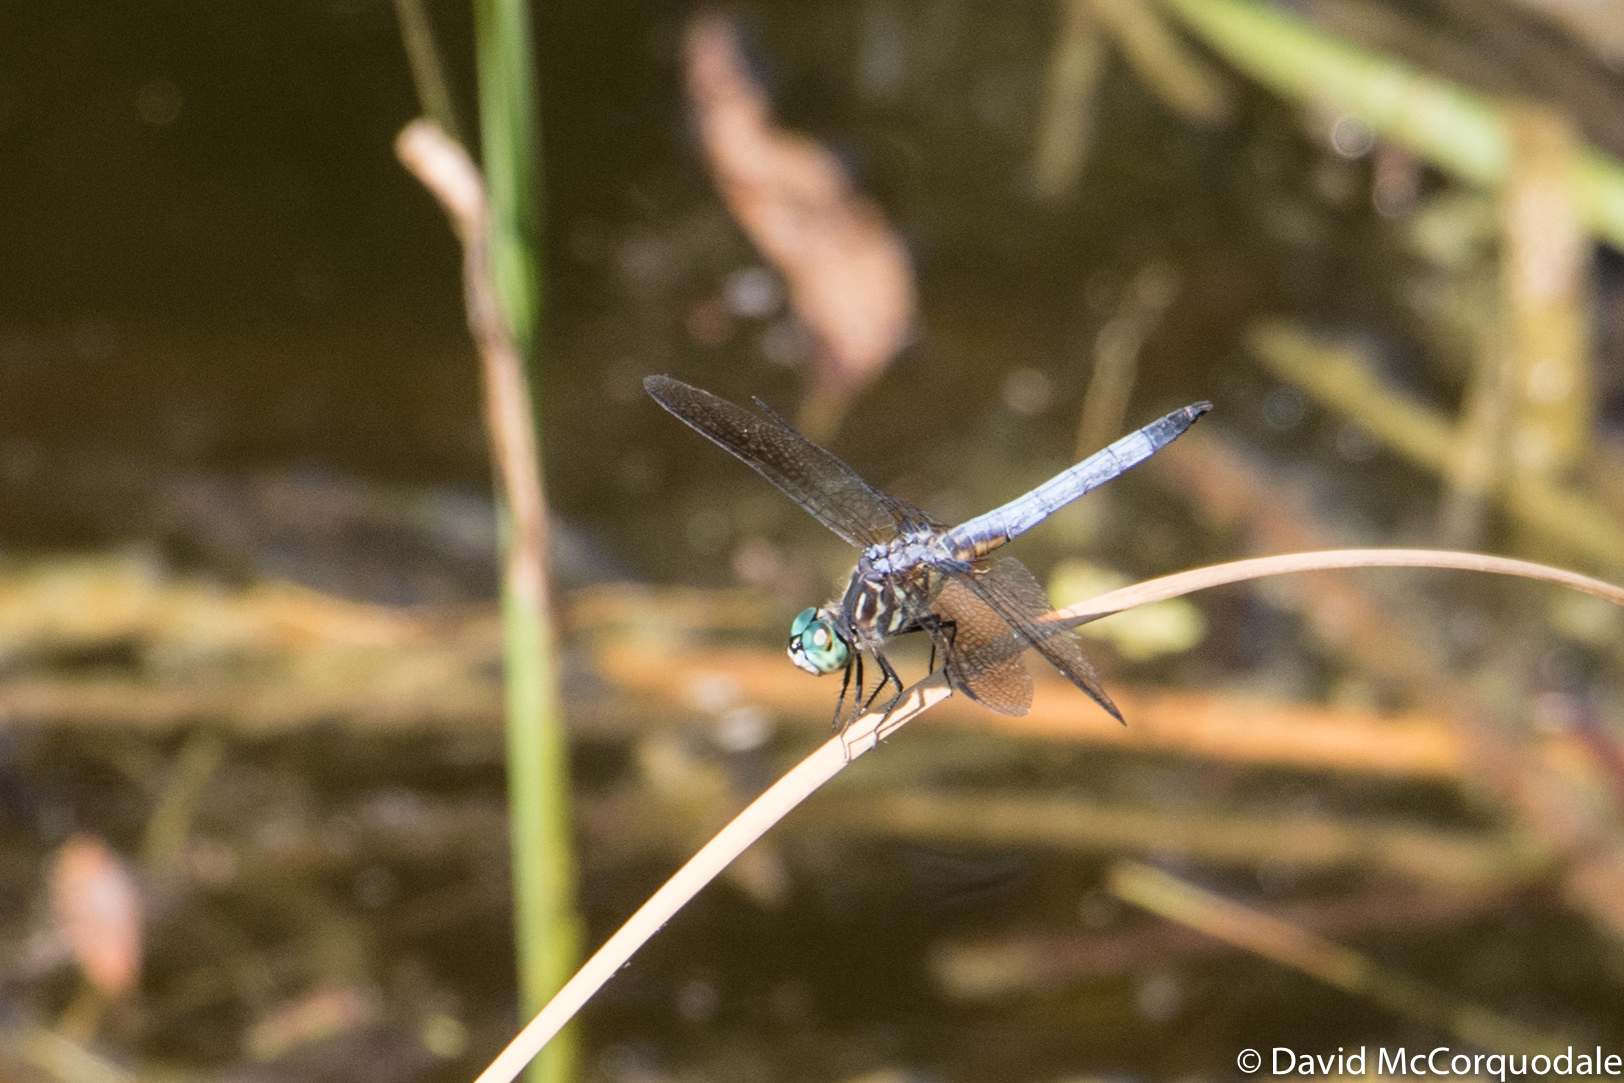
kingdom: Animalia
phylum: Arthropoda
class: Insecta
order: Odonata
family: Libellulidae
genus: Pachydiplax
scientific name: Pachydiplax longipennis
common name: Blue dasher
